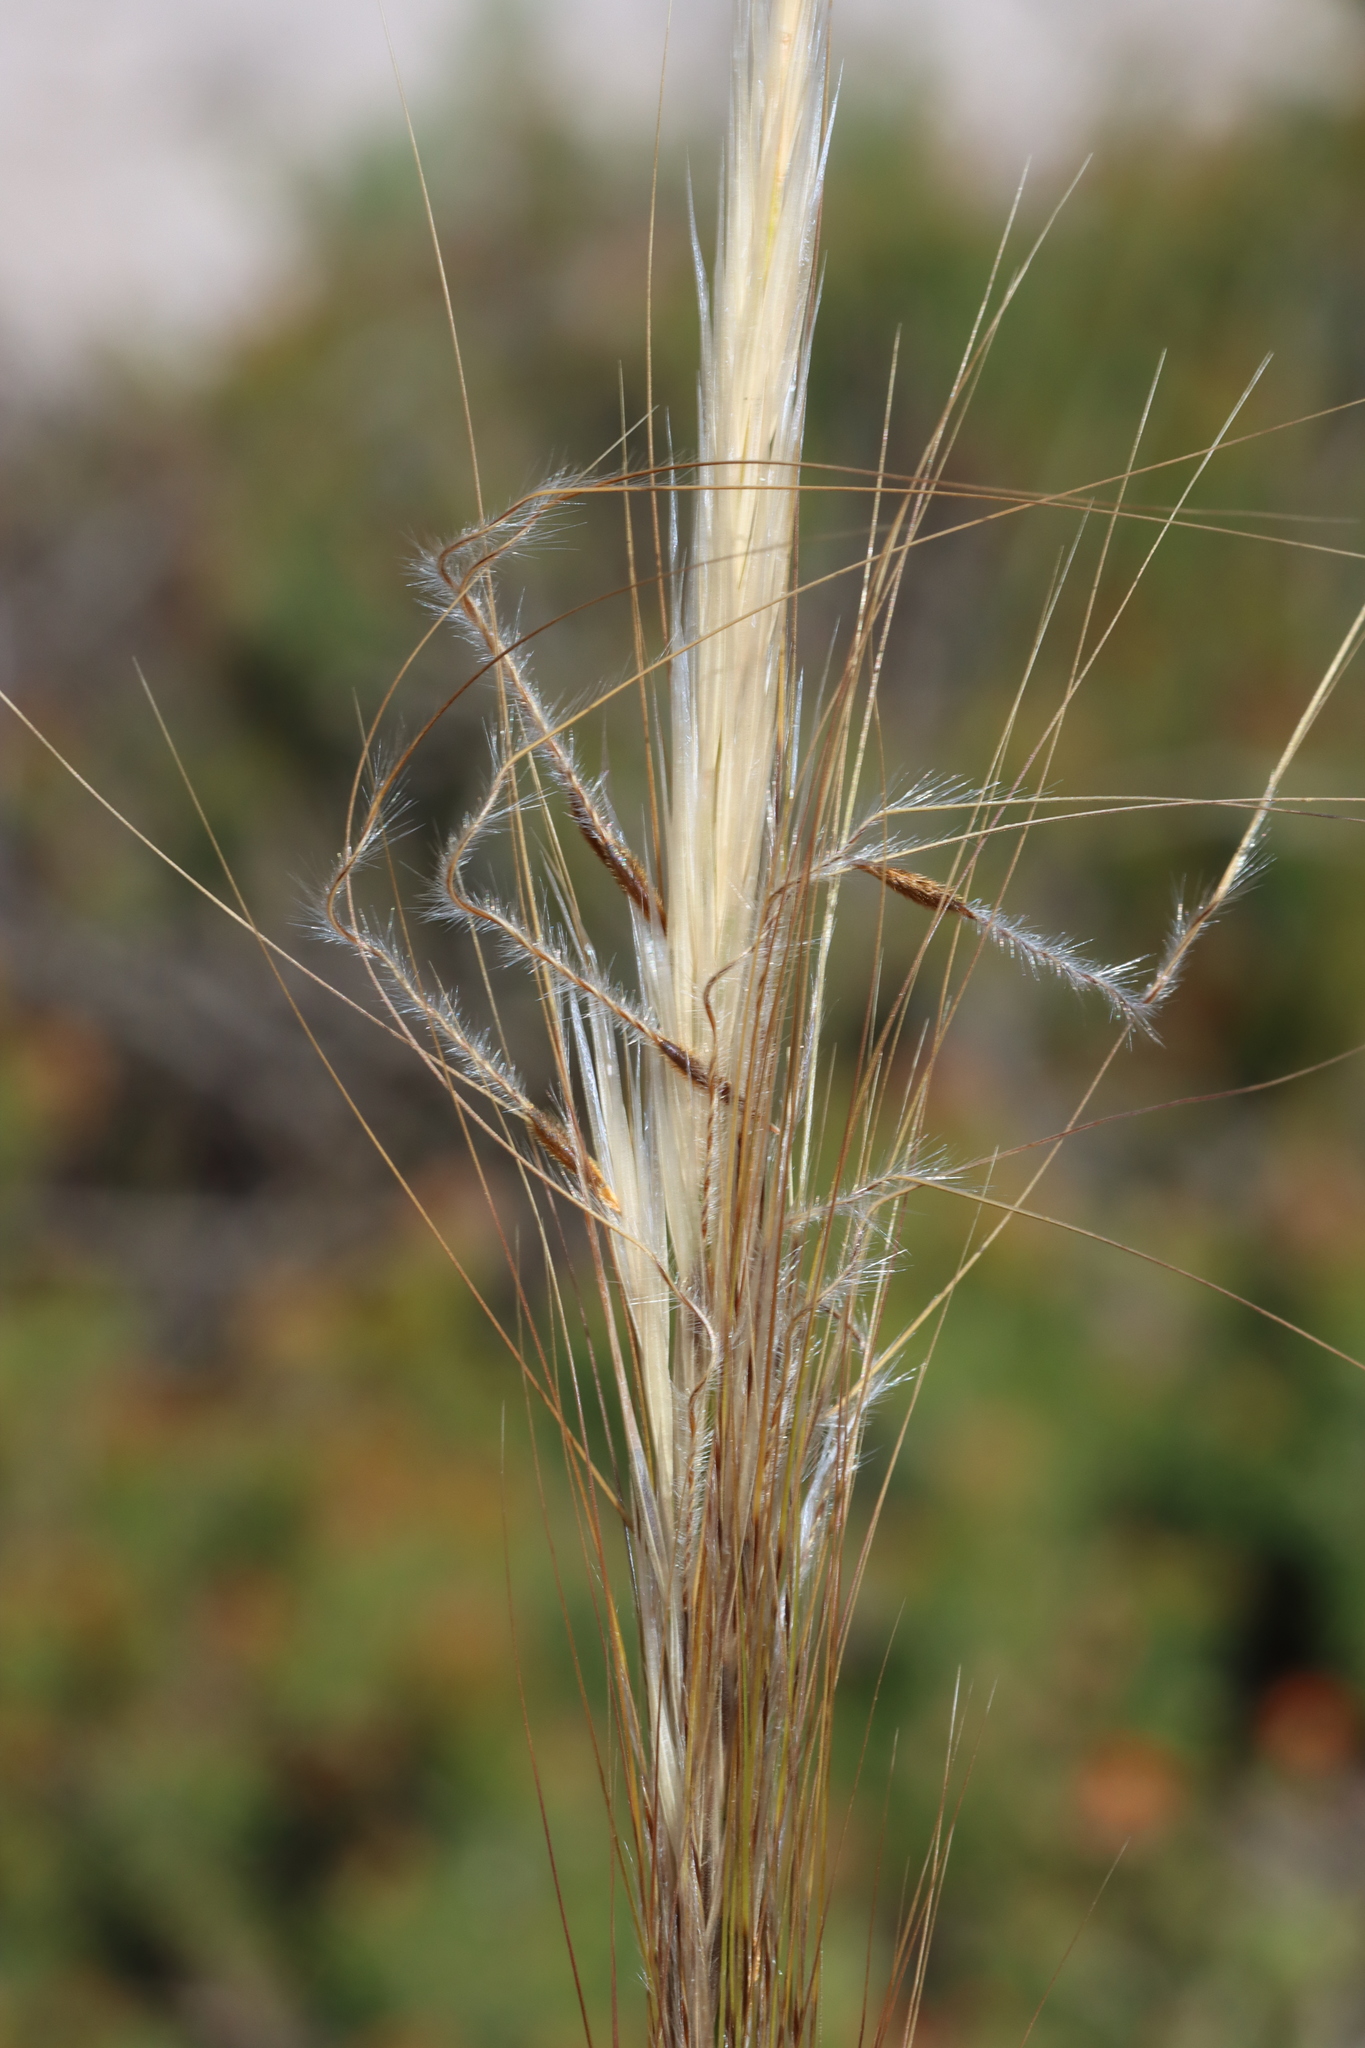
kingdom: Plantae
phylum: Tracheophyta
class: Liliopsida
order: Poales
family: Poaceae
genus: Austrostipa
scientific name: Austrostipa mollis
